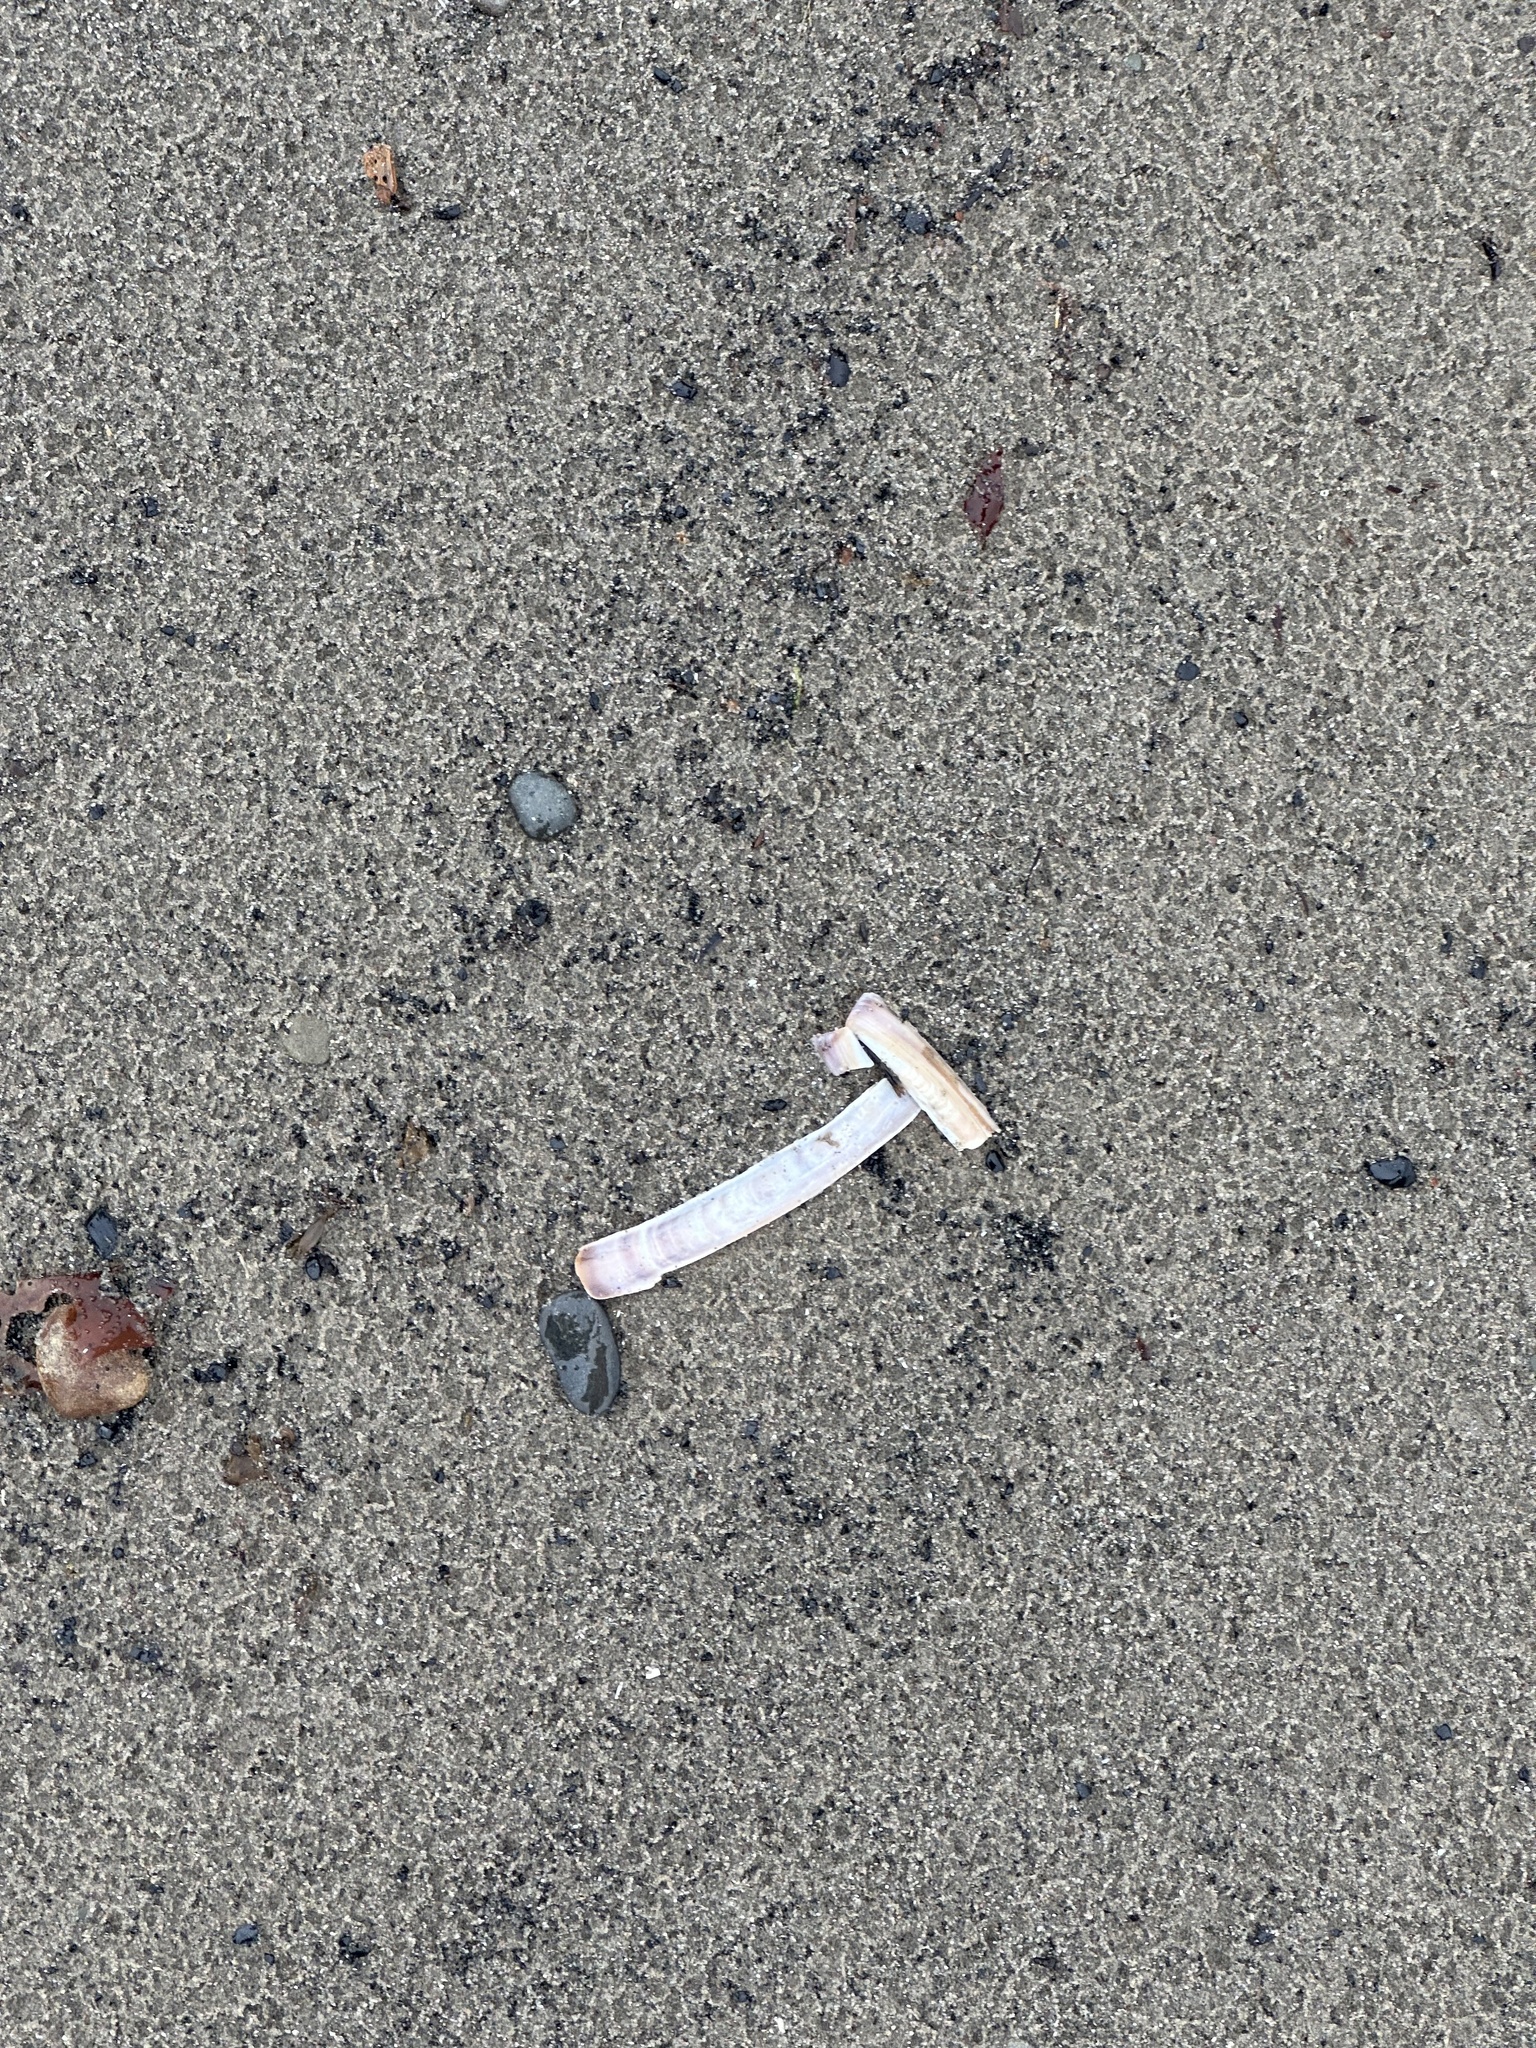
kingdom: Animalia
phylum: Mollusca
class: Bivalvia
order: Adapedonta
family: Pharidae
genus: Ensis
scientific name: Ensis leei
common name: American jack knife clam
